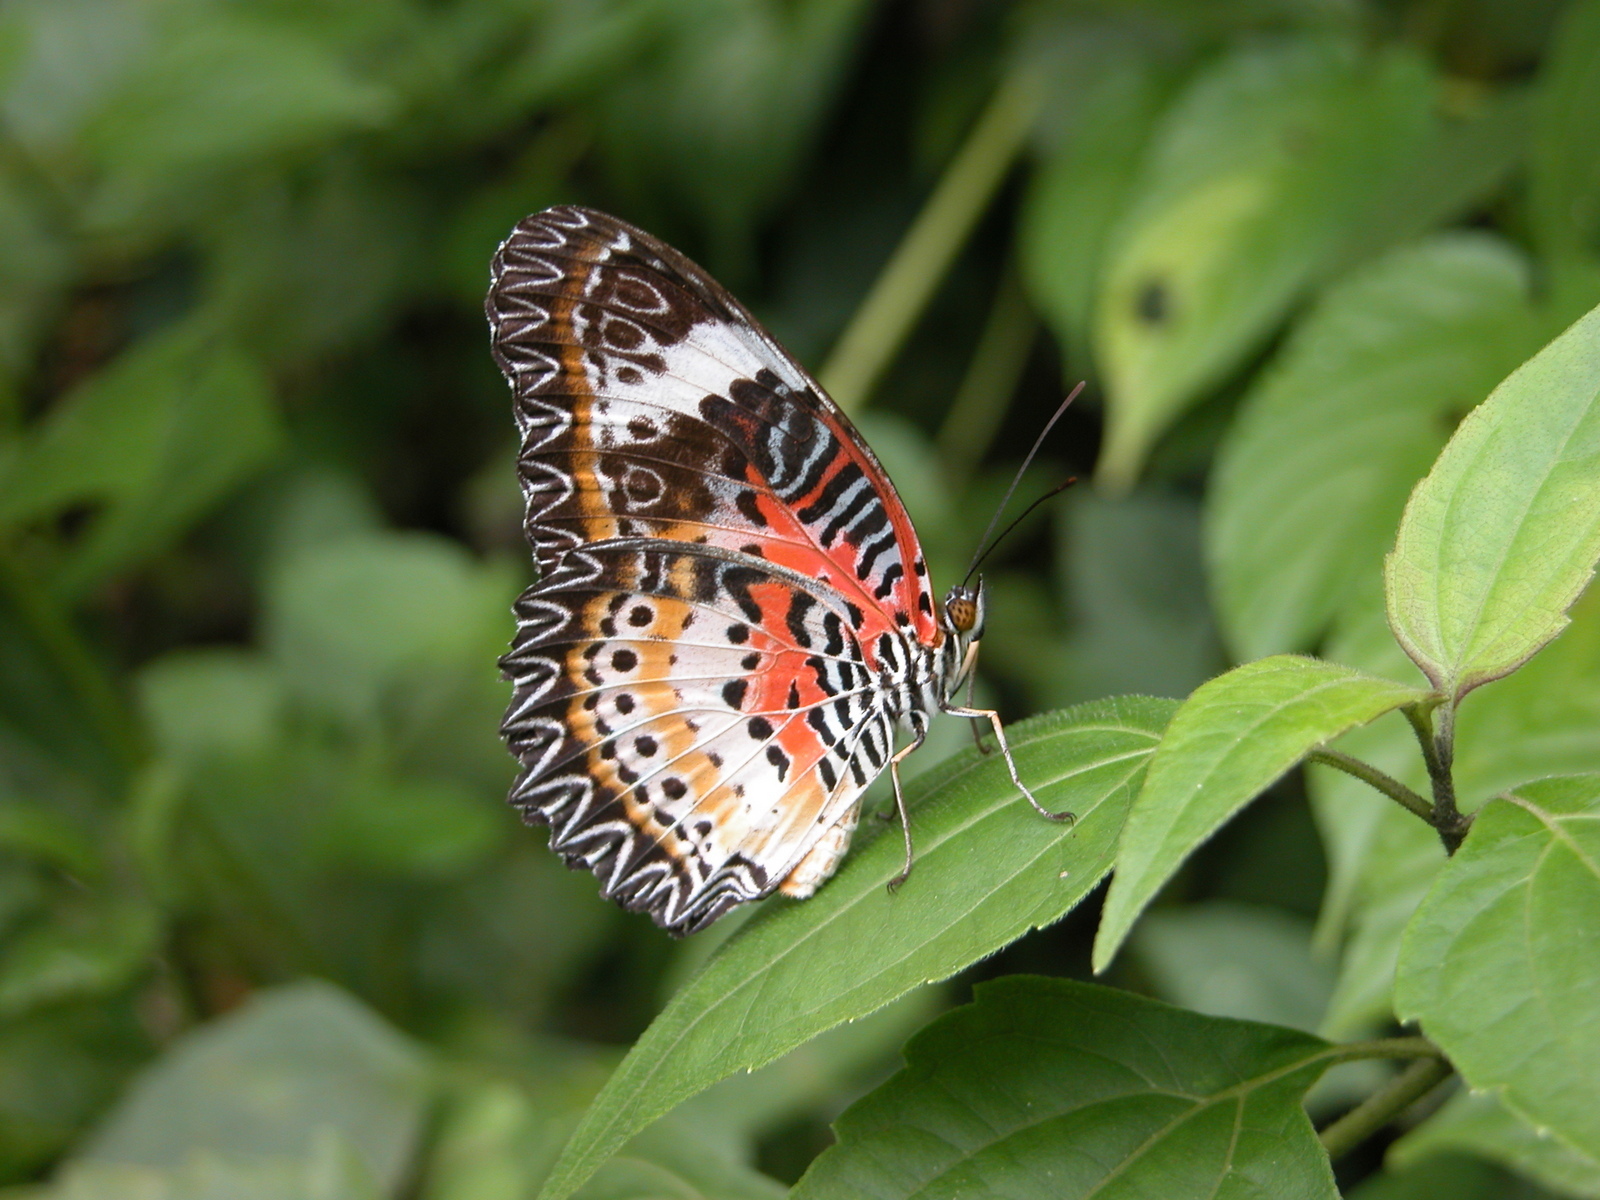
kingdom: Animalia
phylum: Arthropoda
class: Insecta
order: Lepidoptera
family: Nymphalidae
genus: Cethosia
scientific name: Cethosia cyane
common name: Leopard lacewing butterfly
